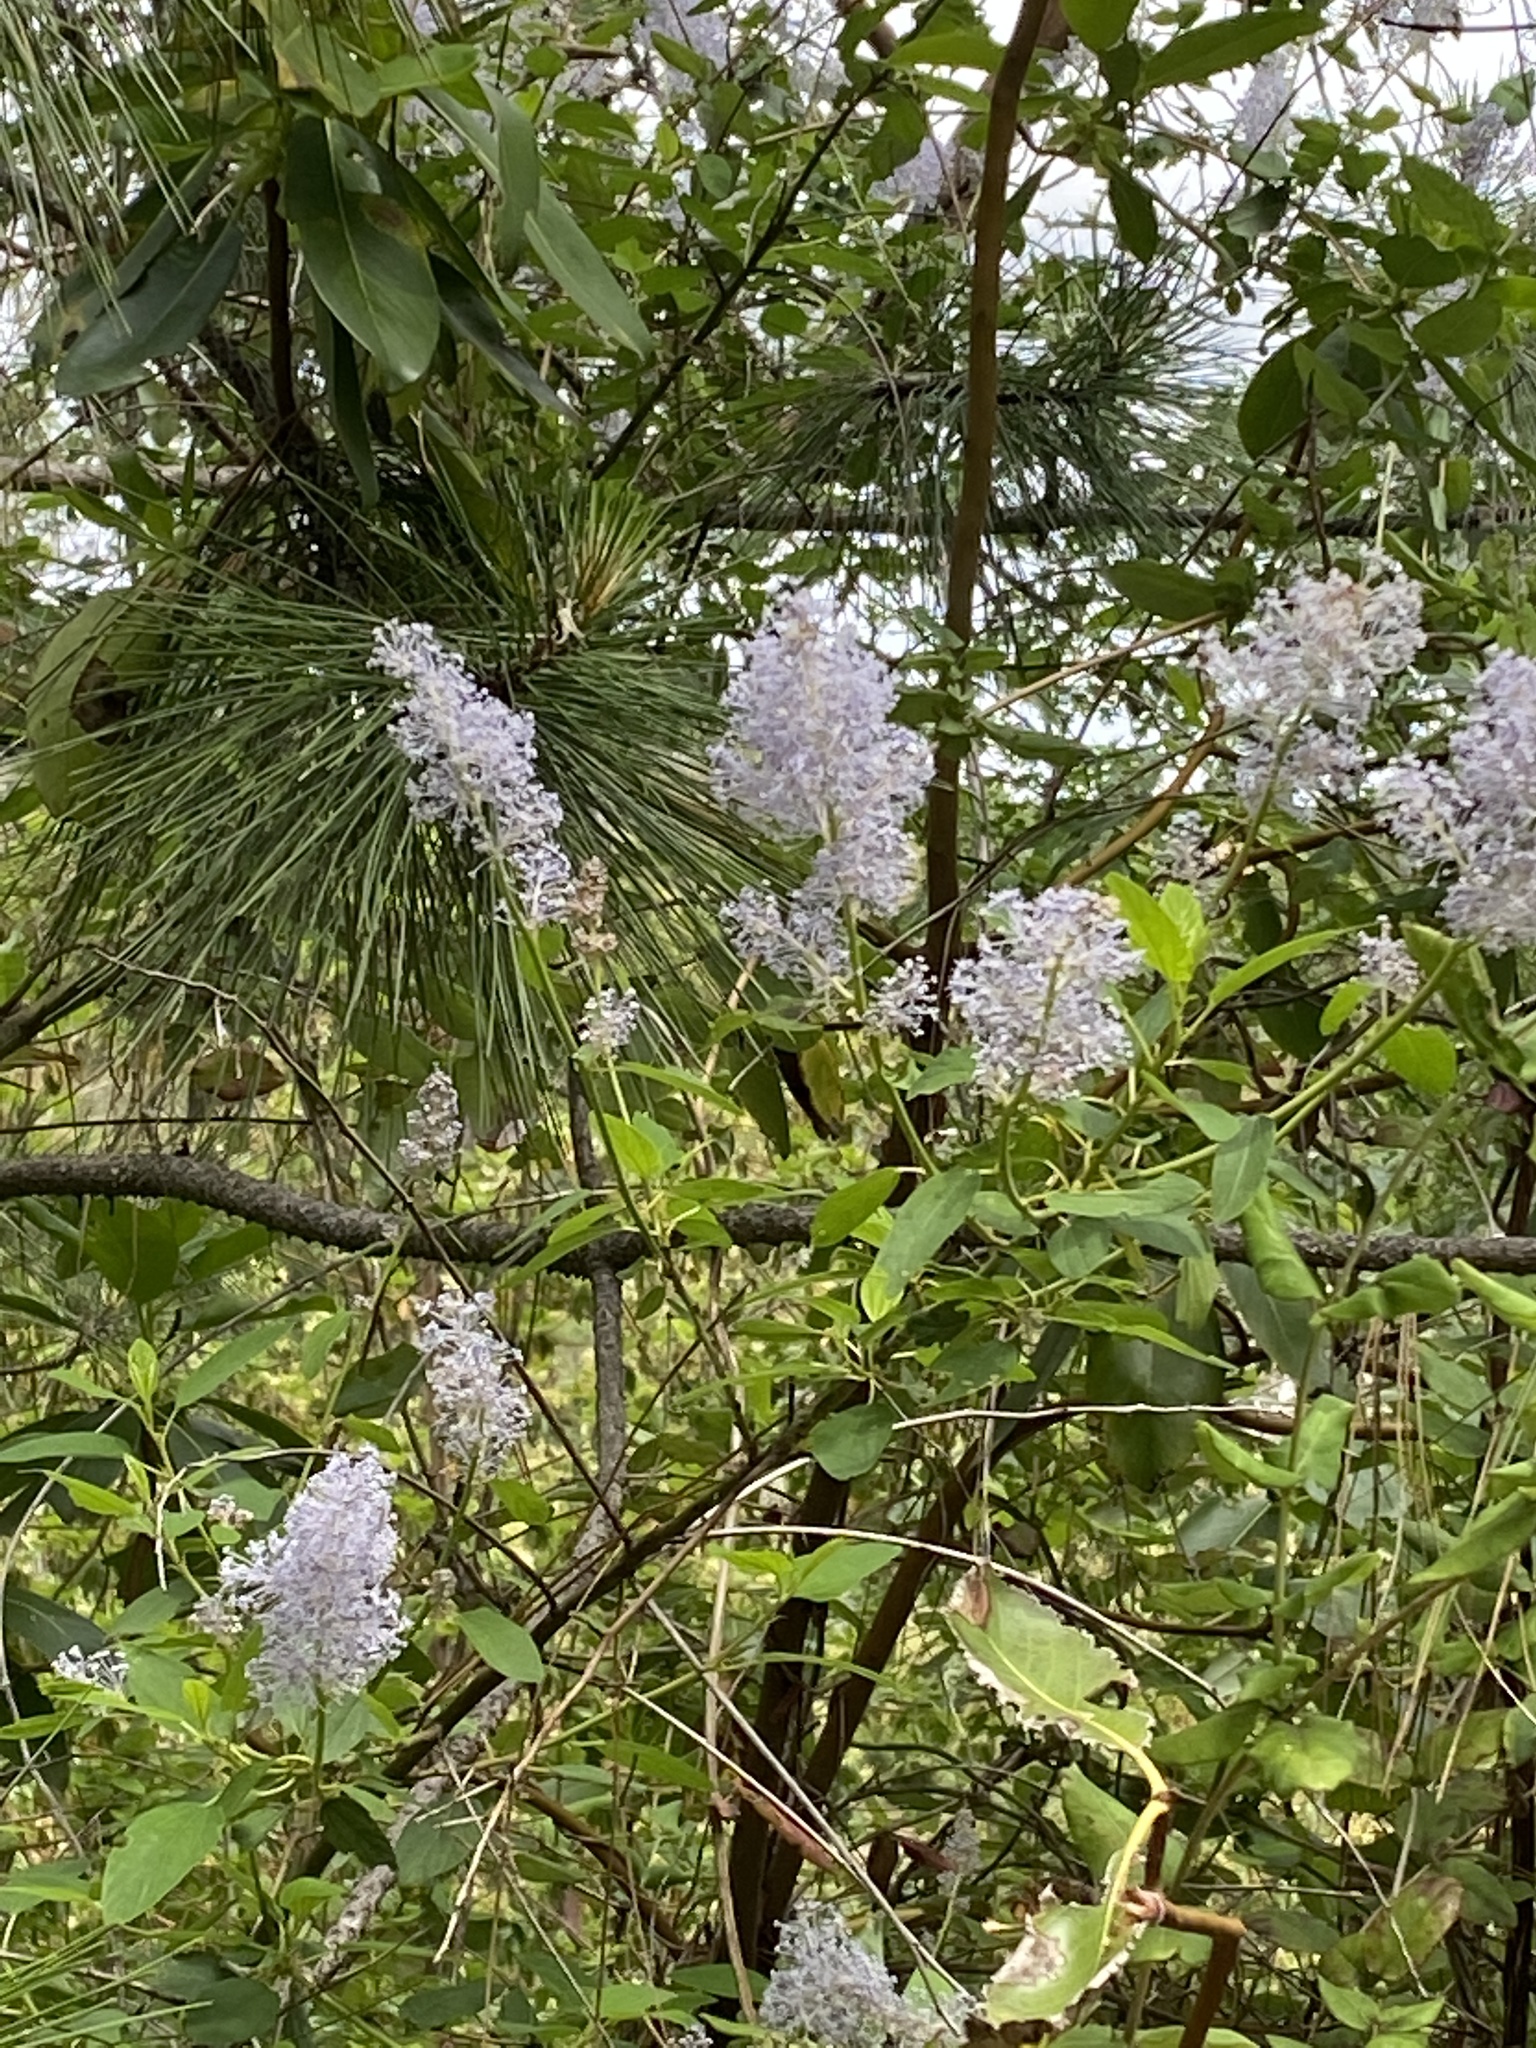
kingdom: Plantae
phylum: Tracheophyta
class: Magnoliopsida
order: Rosales
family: Rhamnaceae
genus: Ceanothus
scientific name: Ceanothus integerrimus
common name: Deerbrush ceanothus
